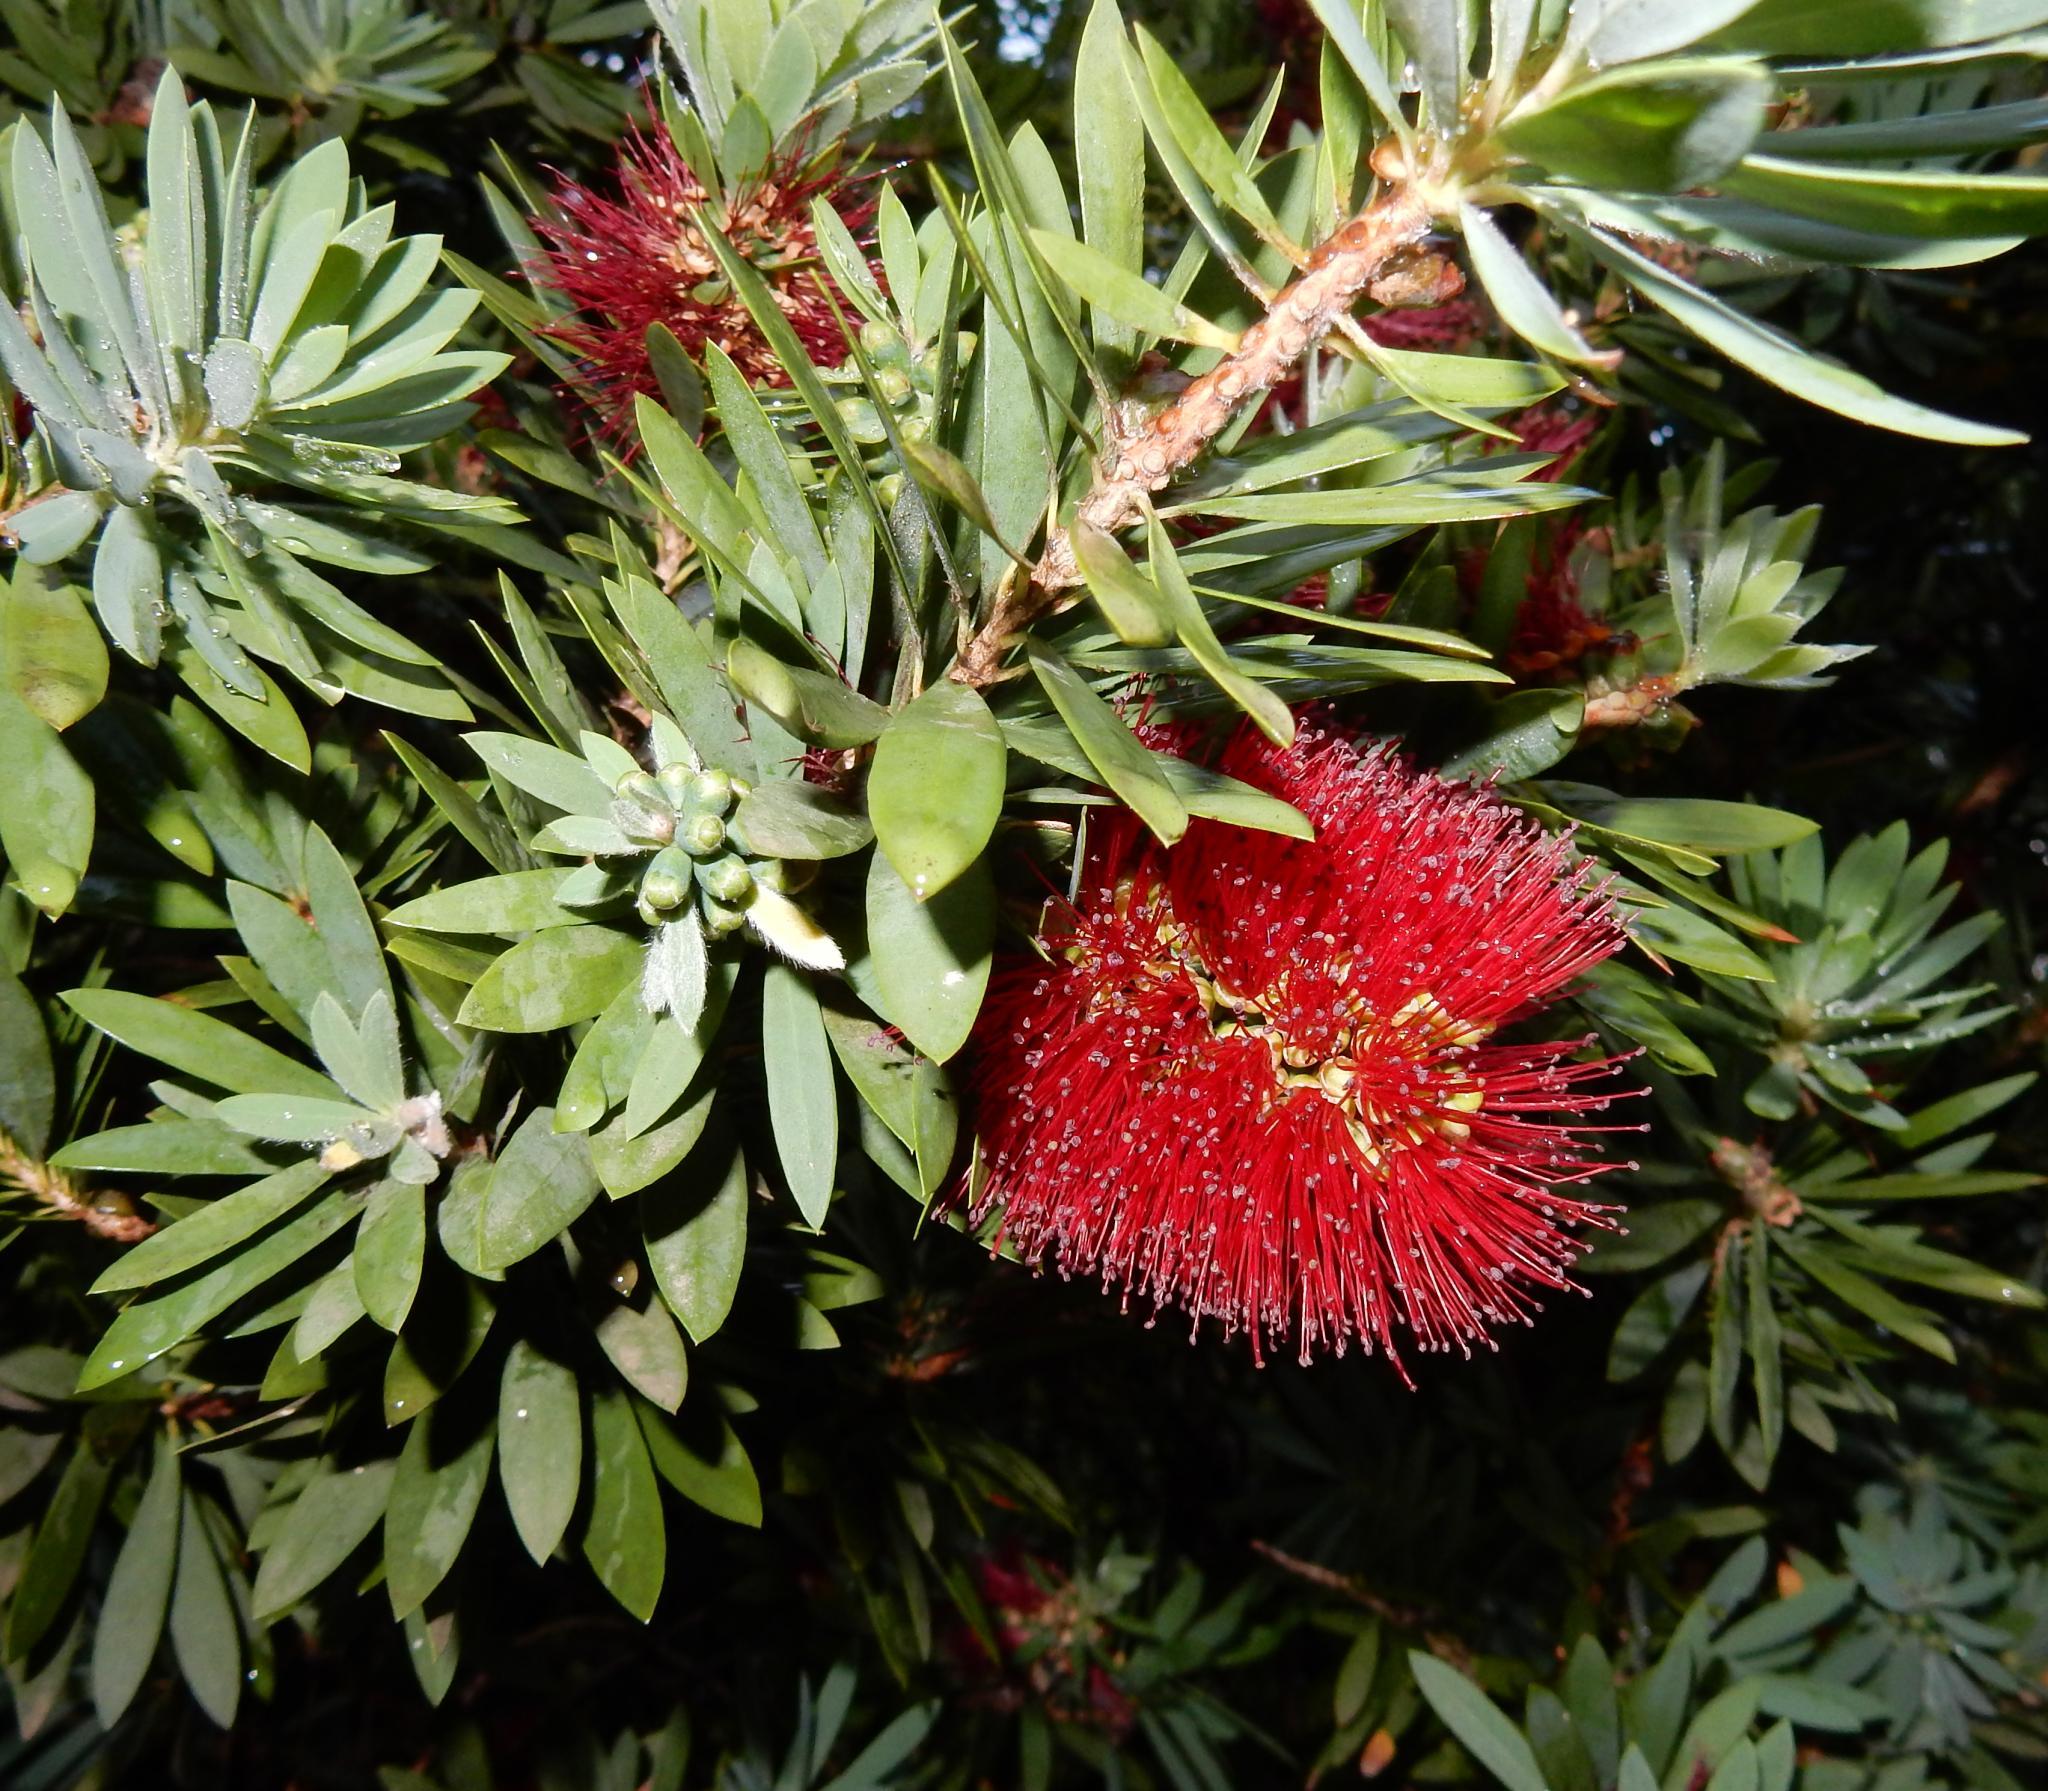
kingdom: Plantae
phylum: Tracheophyta
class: Magnoliopsida
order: Myrtales
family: Myrtaceae
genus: Callistemon
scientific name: Callistemon viminalis
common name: Drooping bottlebrush
